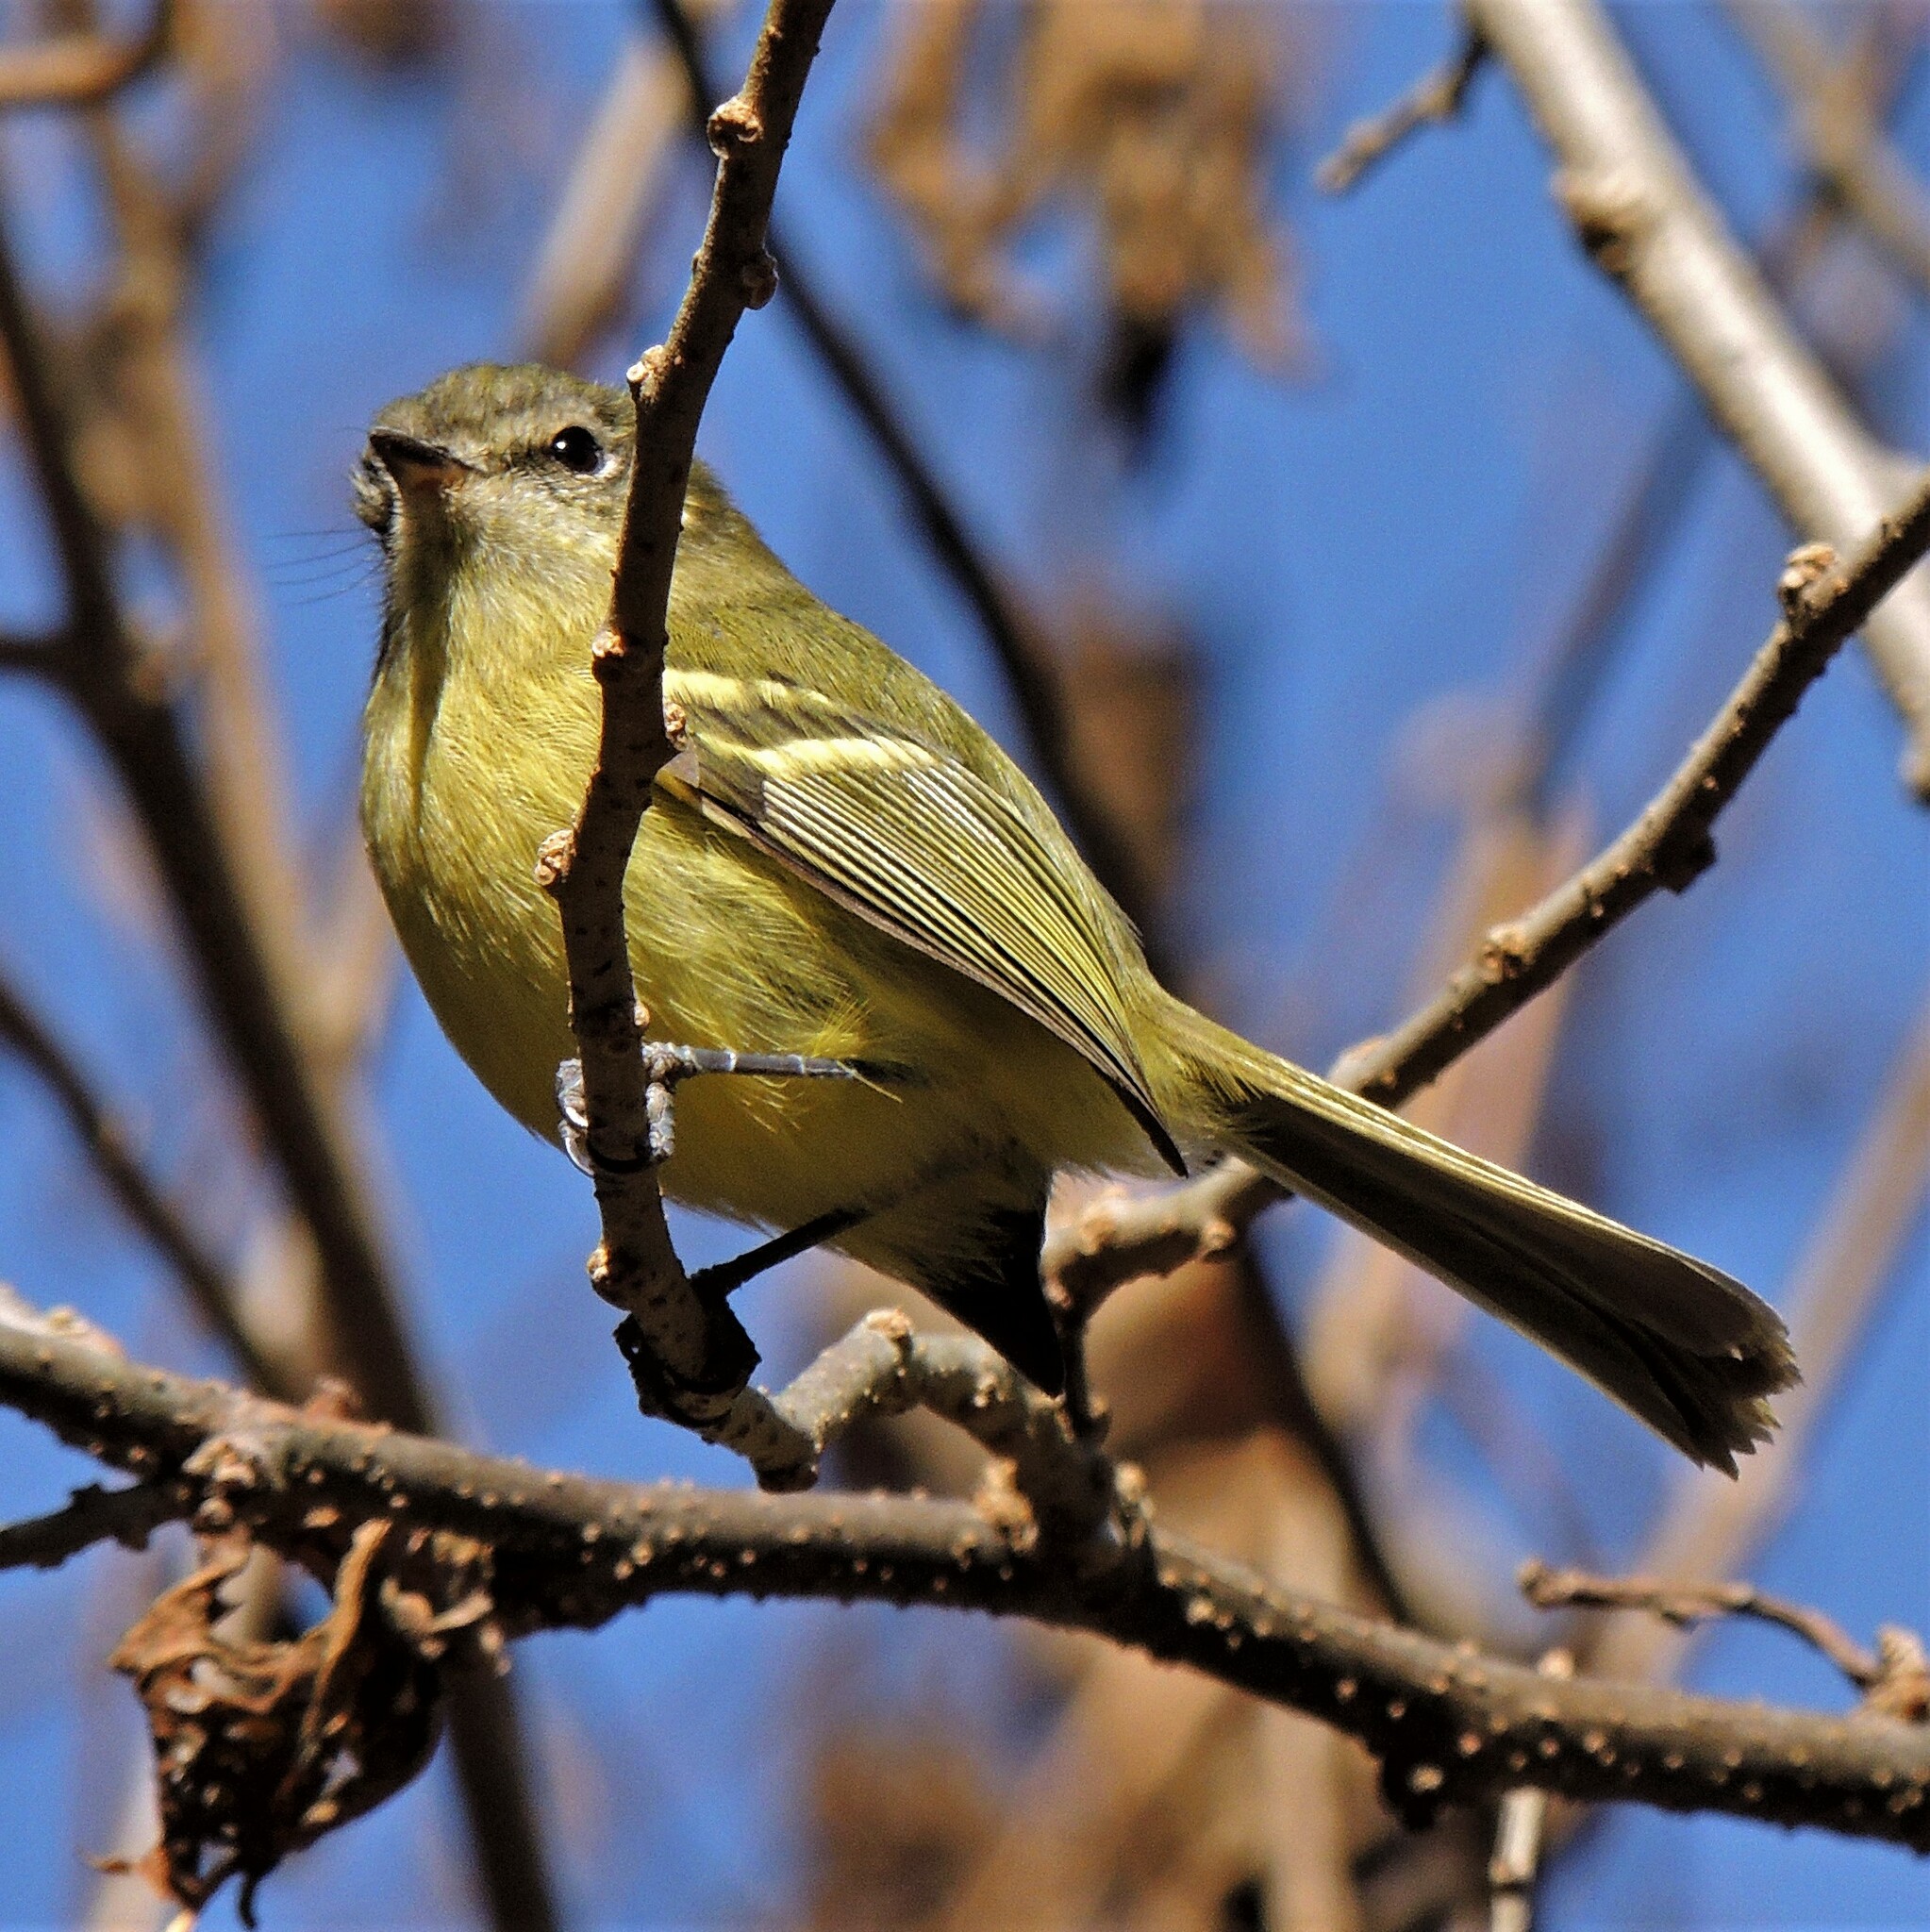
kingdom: Animalia
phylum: Chordata
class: Aves
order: Passeriformes
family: Tyrannidae
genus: Phylloscartes
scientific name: Phylloscartes ventralis
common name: Mottle-cheeked tyrannulet
